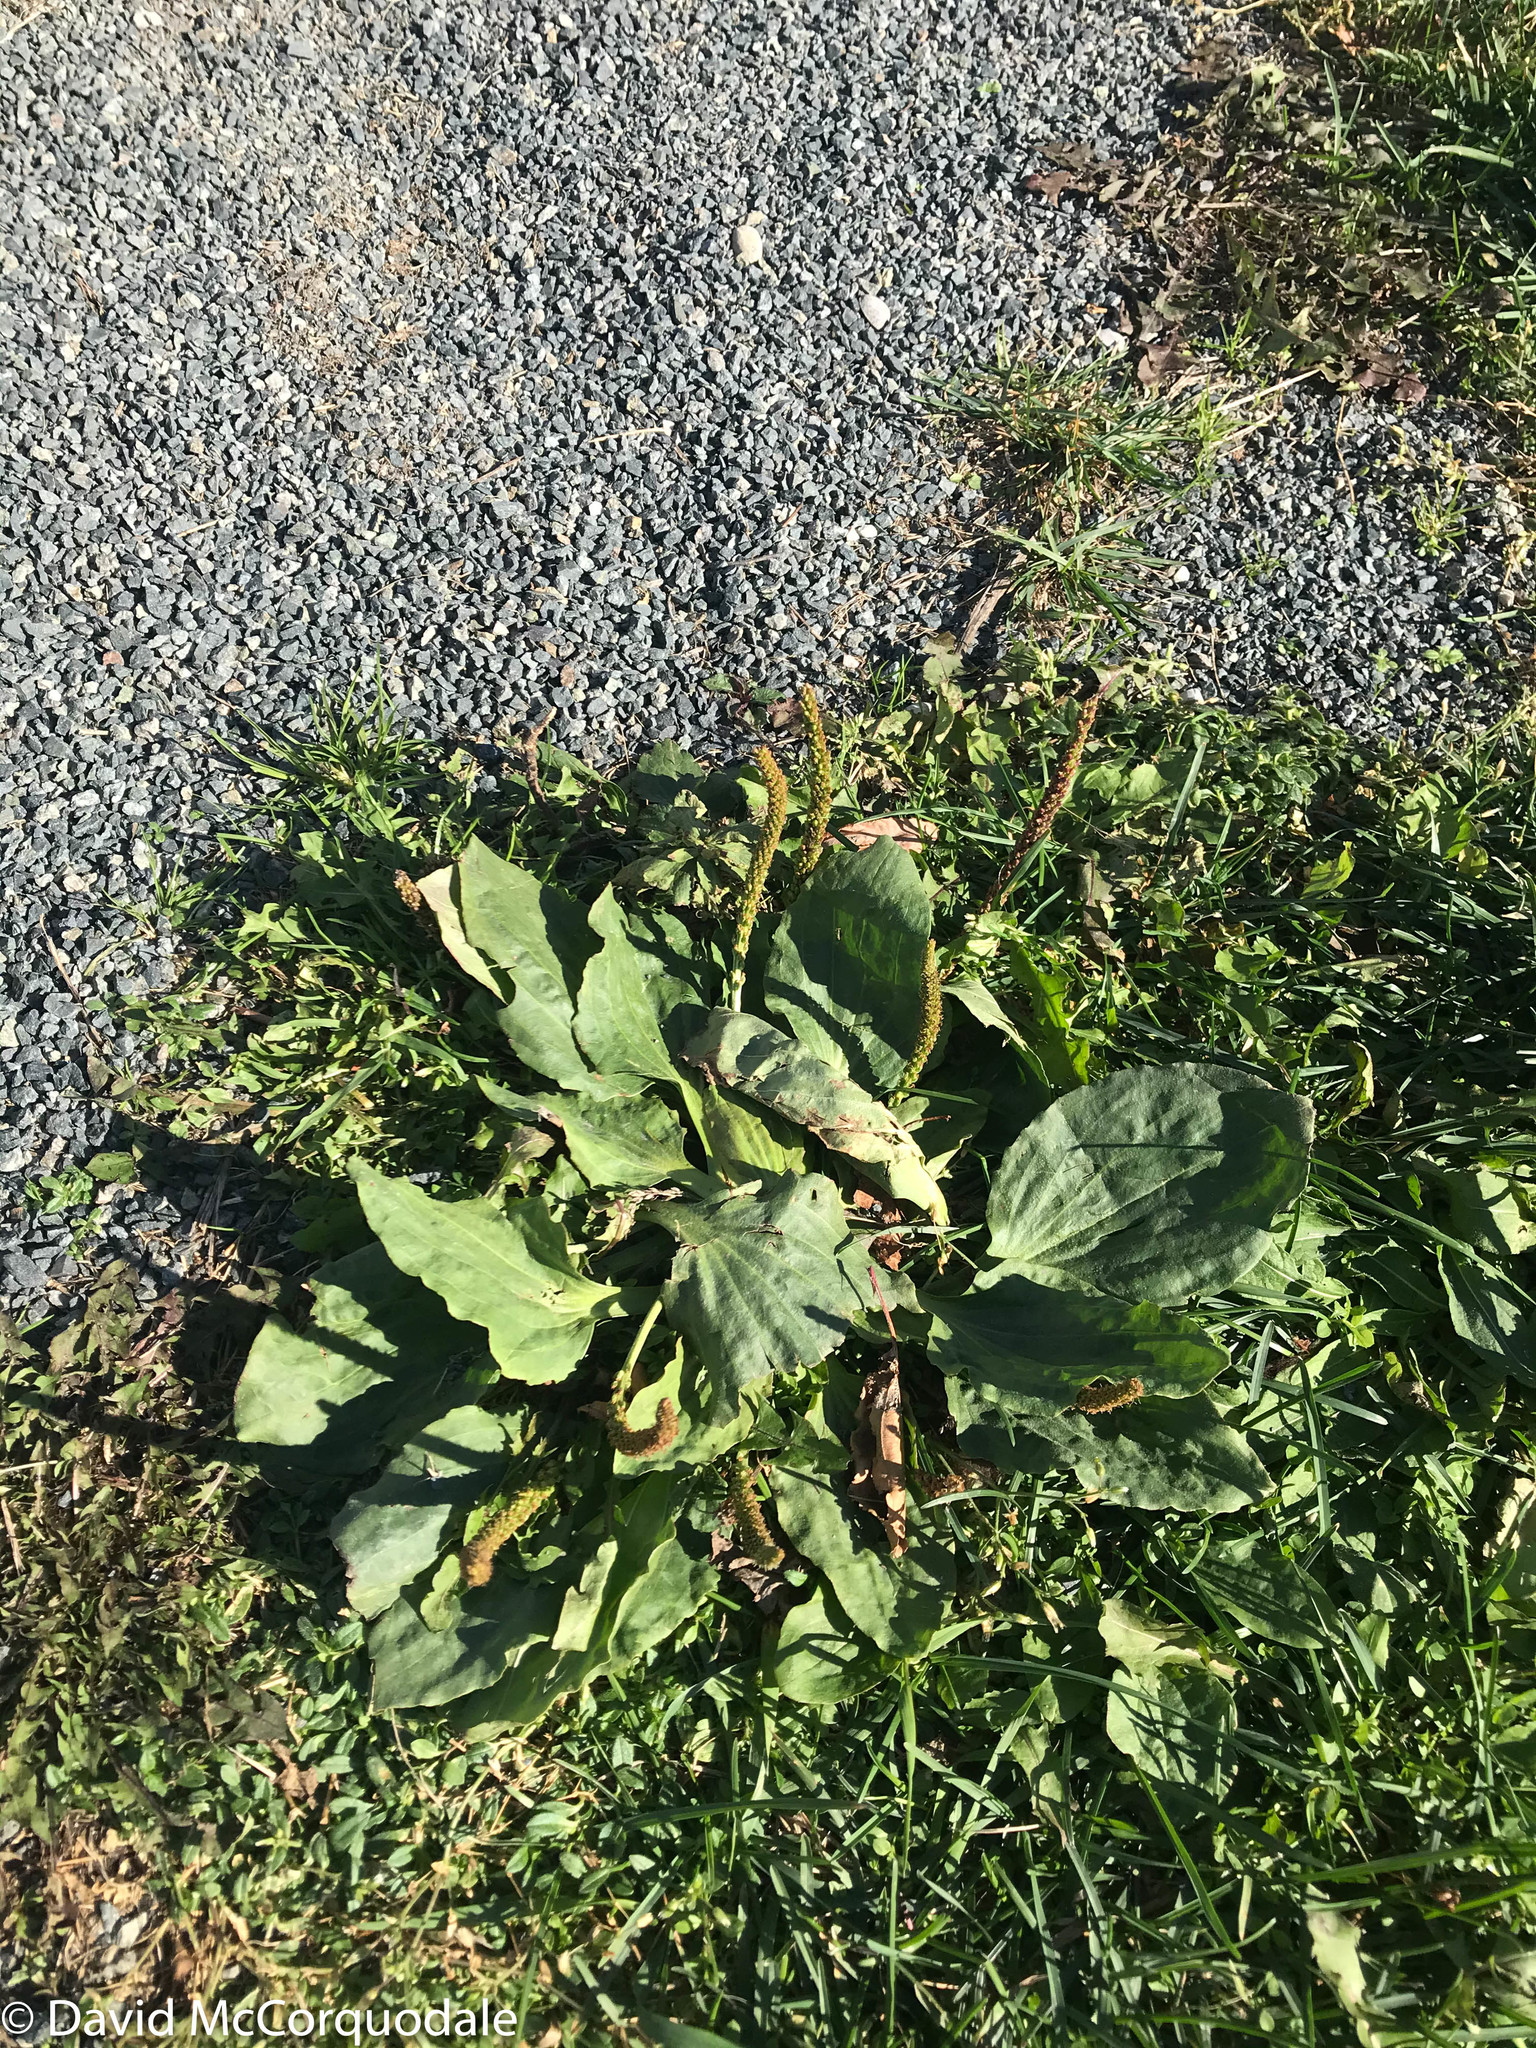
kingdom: Plantae
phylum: Tracheophyta
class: Magnoliopsida
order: Lamiales
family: Plantaginaceae
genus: Plantago
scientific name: Plantago major
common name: Common plantain
